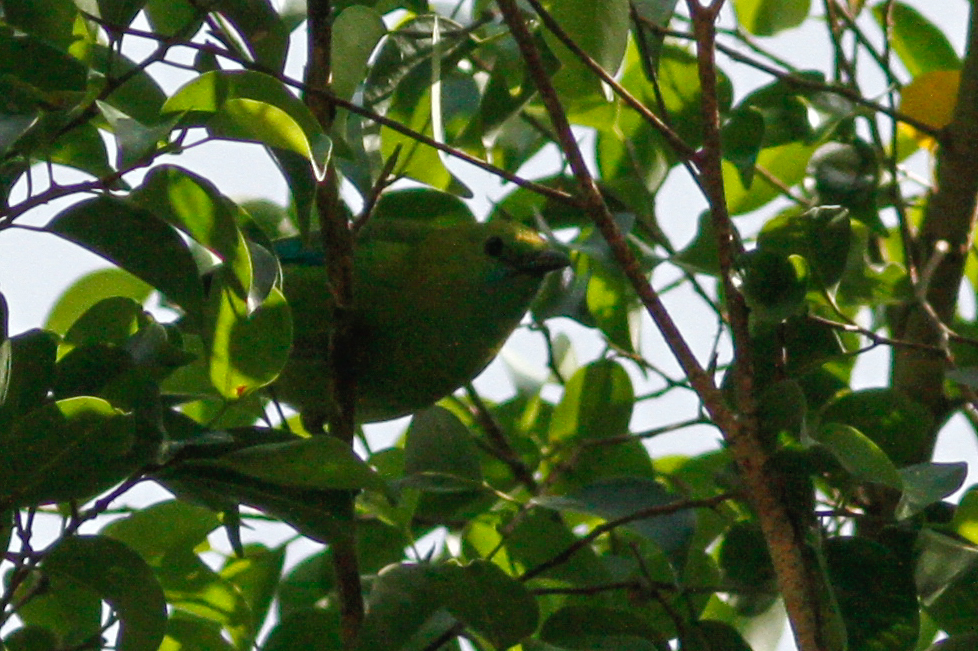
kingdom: Animalia
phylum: Chordata
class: Aves
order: Passeriformes
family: Chloropseidae
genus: Chloropsis
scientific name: Chloropsis moluccensis
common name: Blue-winged leafbird
